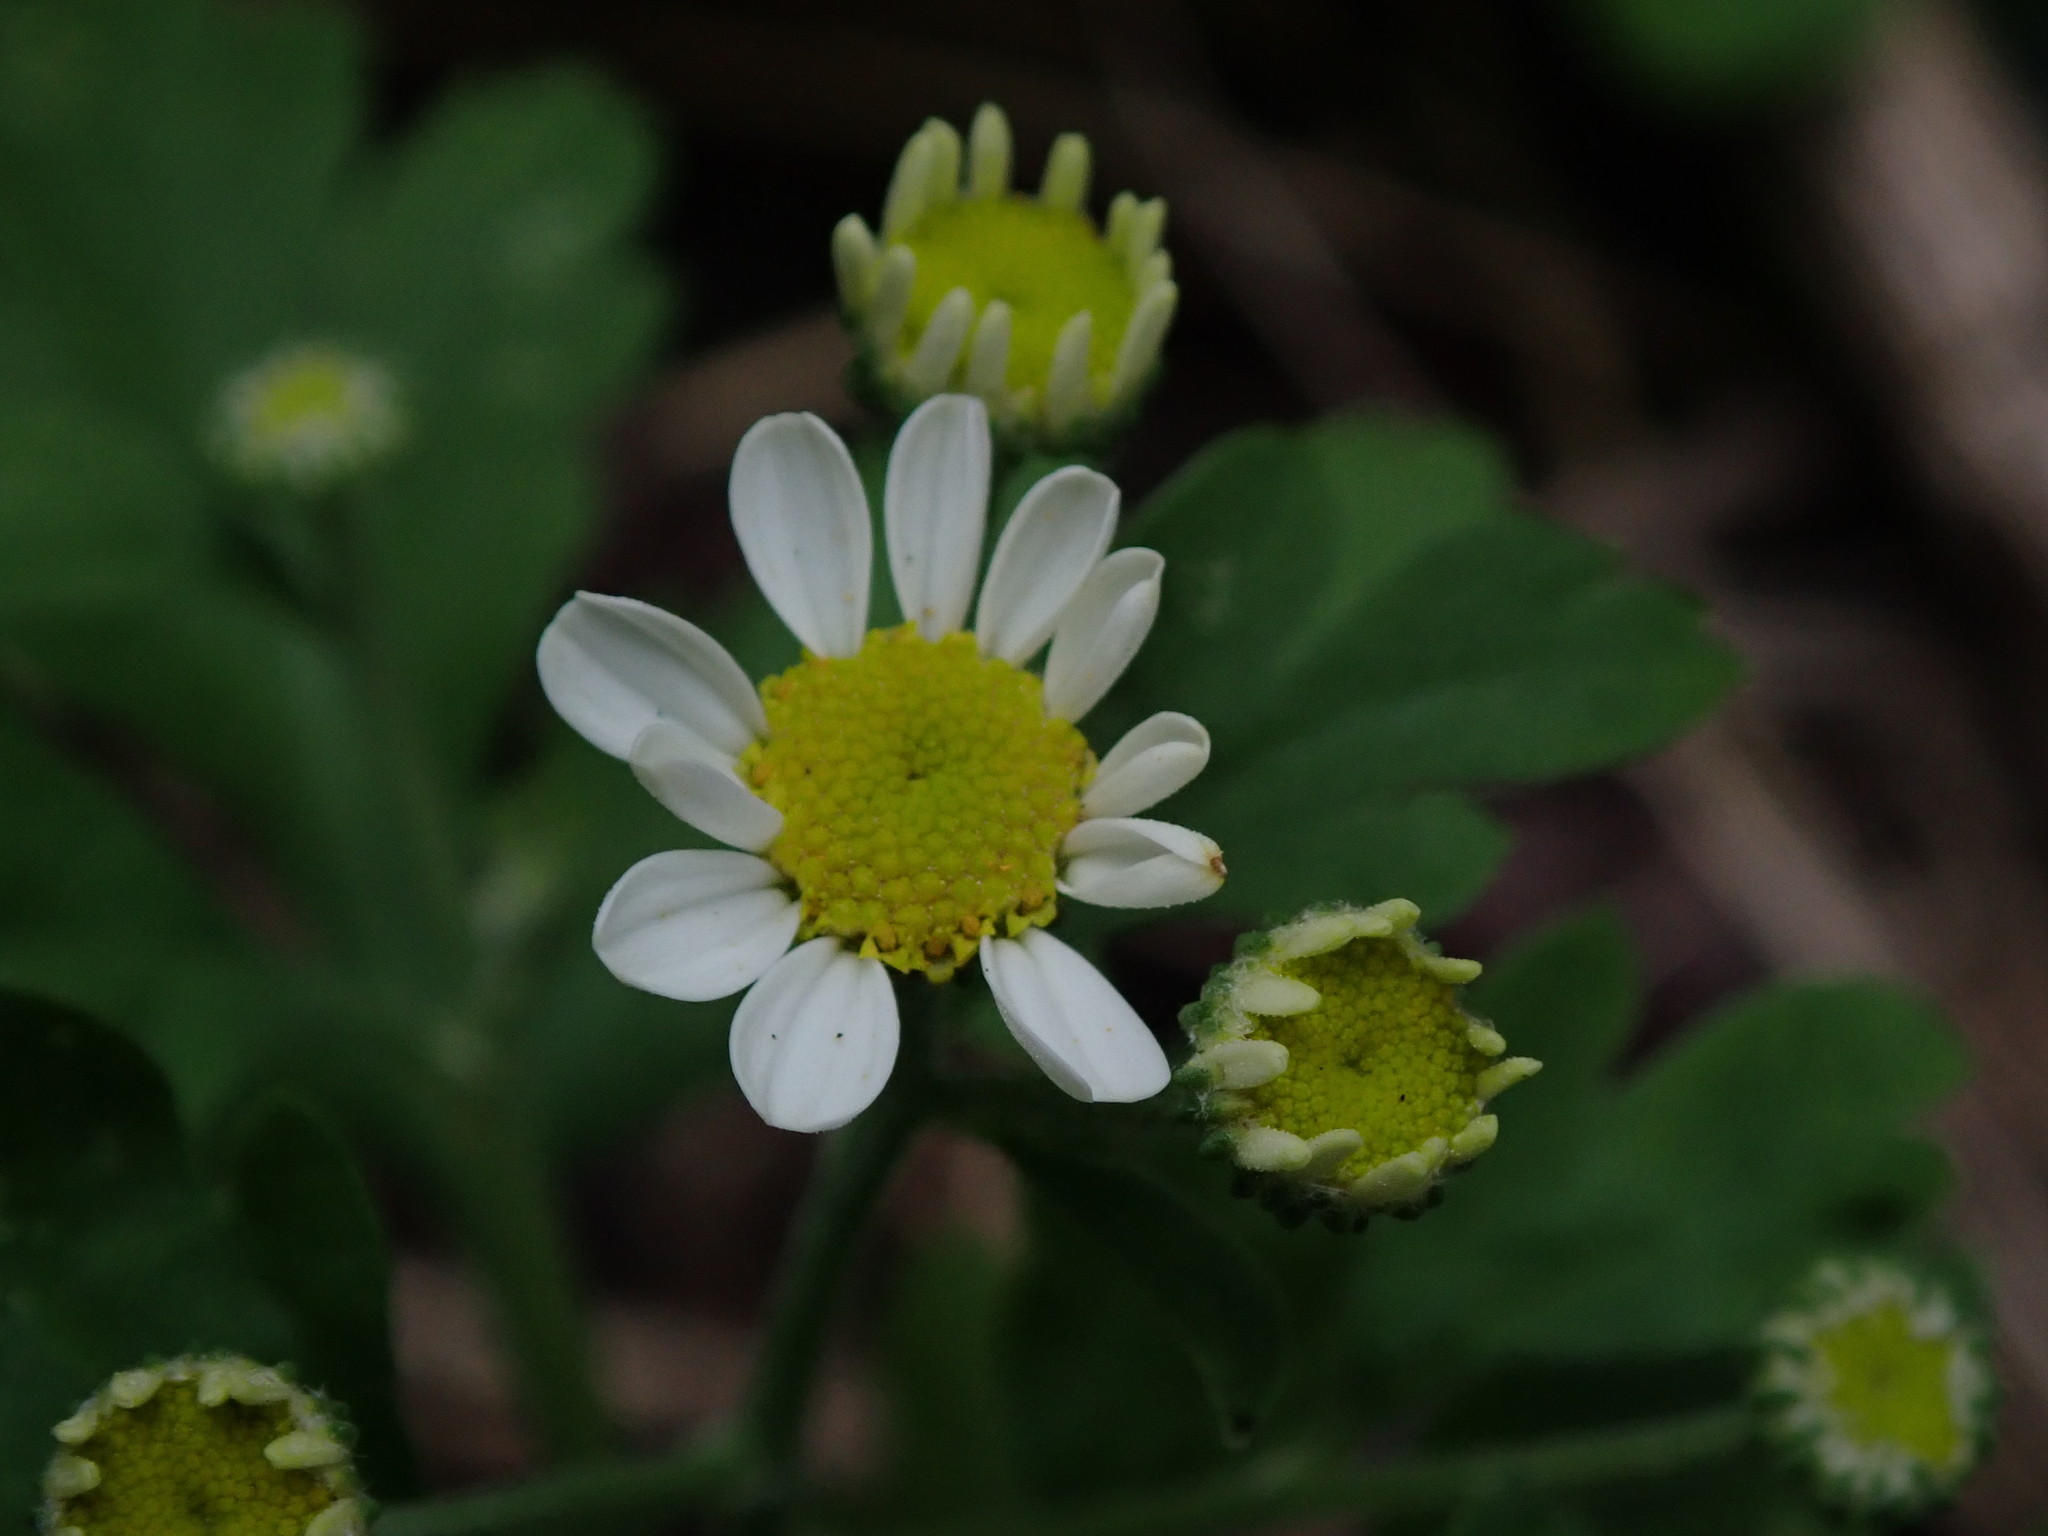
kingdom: Plantae
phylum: Tracheophyta
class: Magnoliopsida
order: Asterales
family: Asteraceae
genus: Tanacetum
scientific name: Tanacetum parthenium
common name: Feverfew
